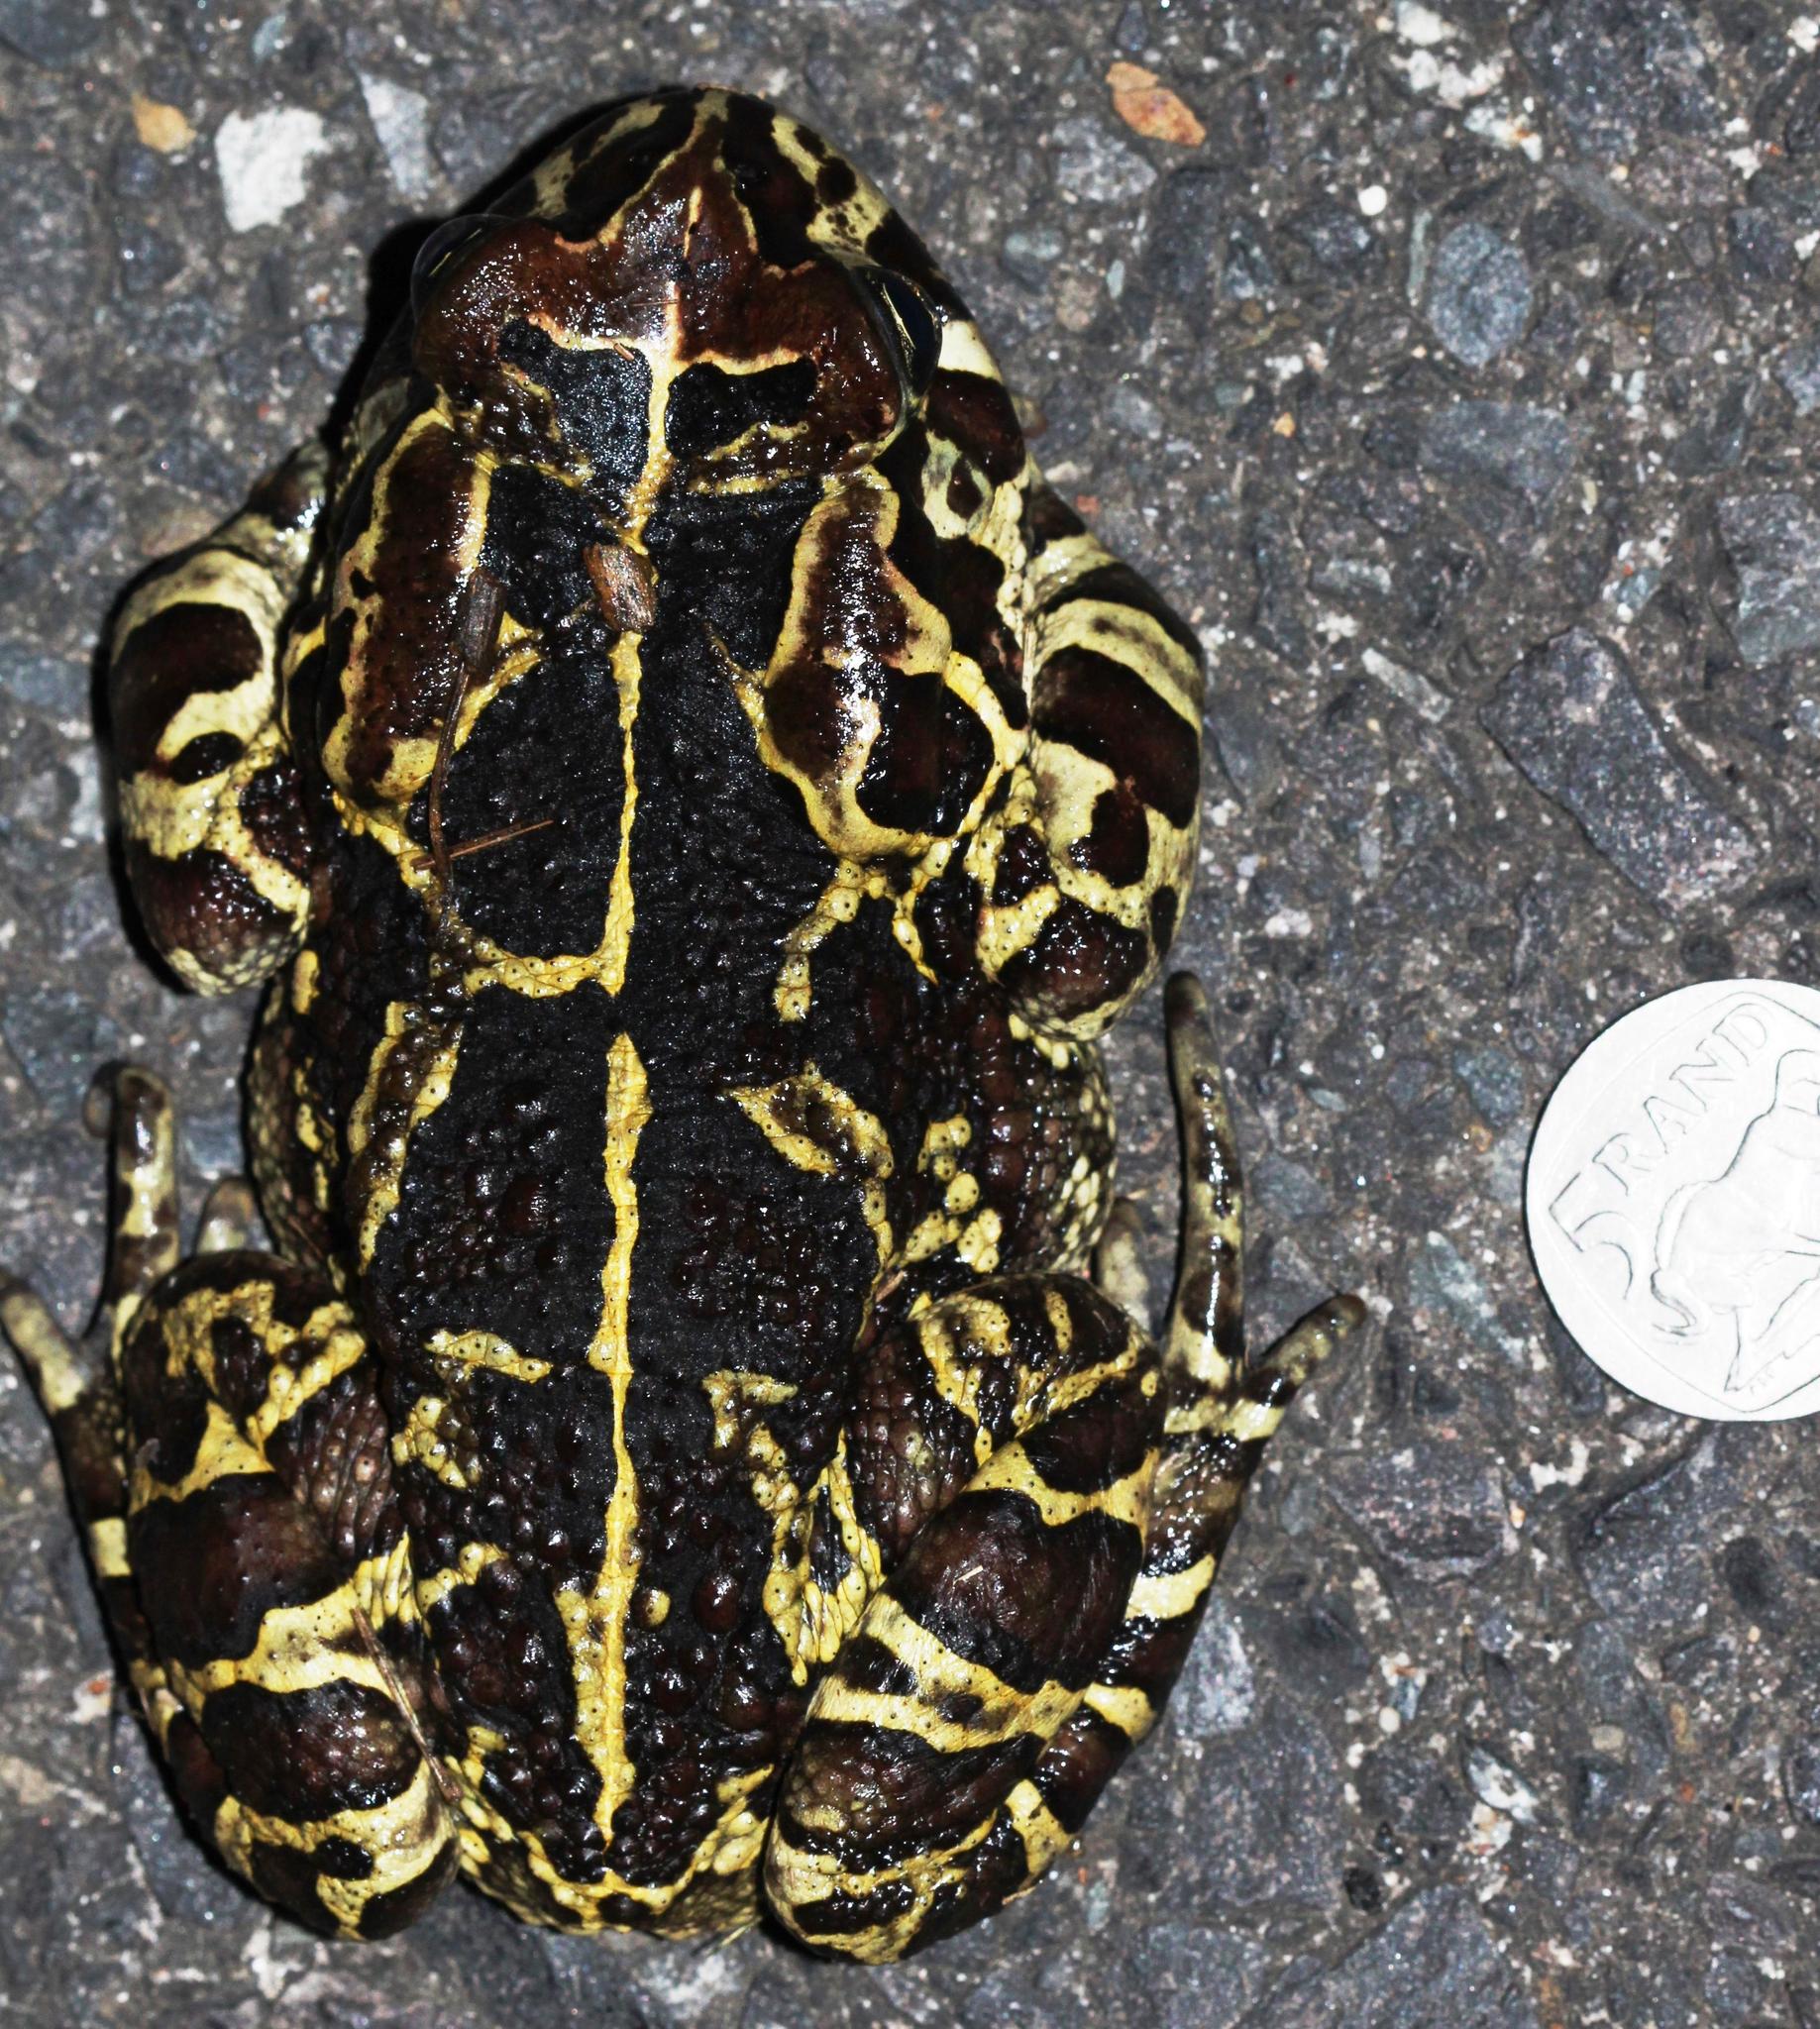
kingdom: Animalia
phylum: Chordata
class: Amphibia
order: Anura
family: Bufonidae
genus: Sclerophrys
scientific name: Sclerophrys pantherina
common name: Panther toad
